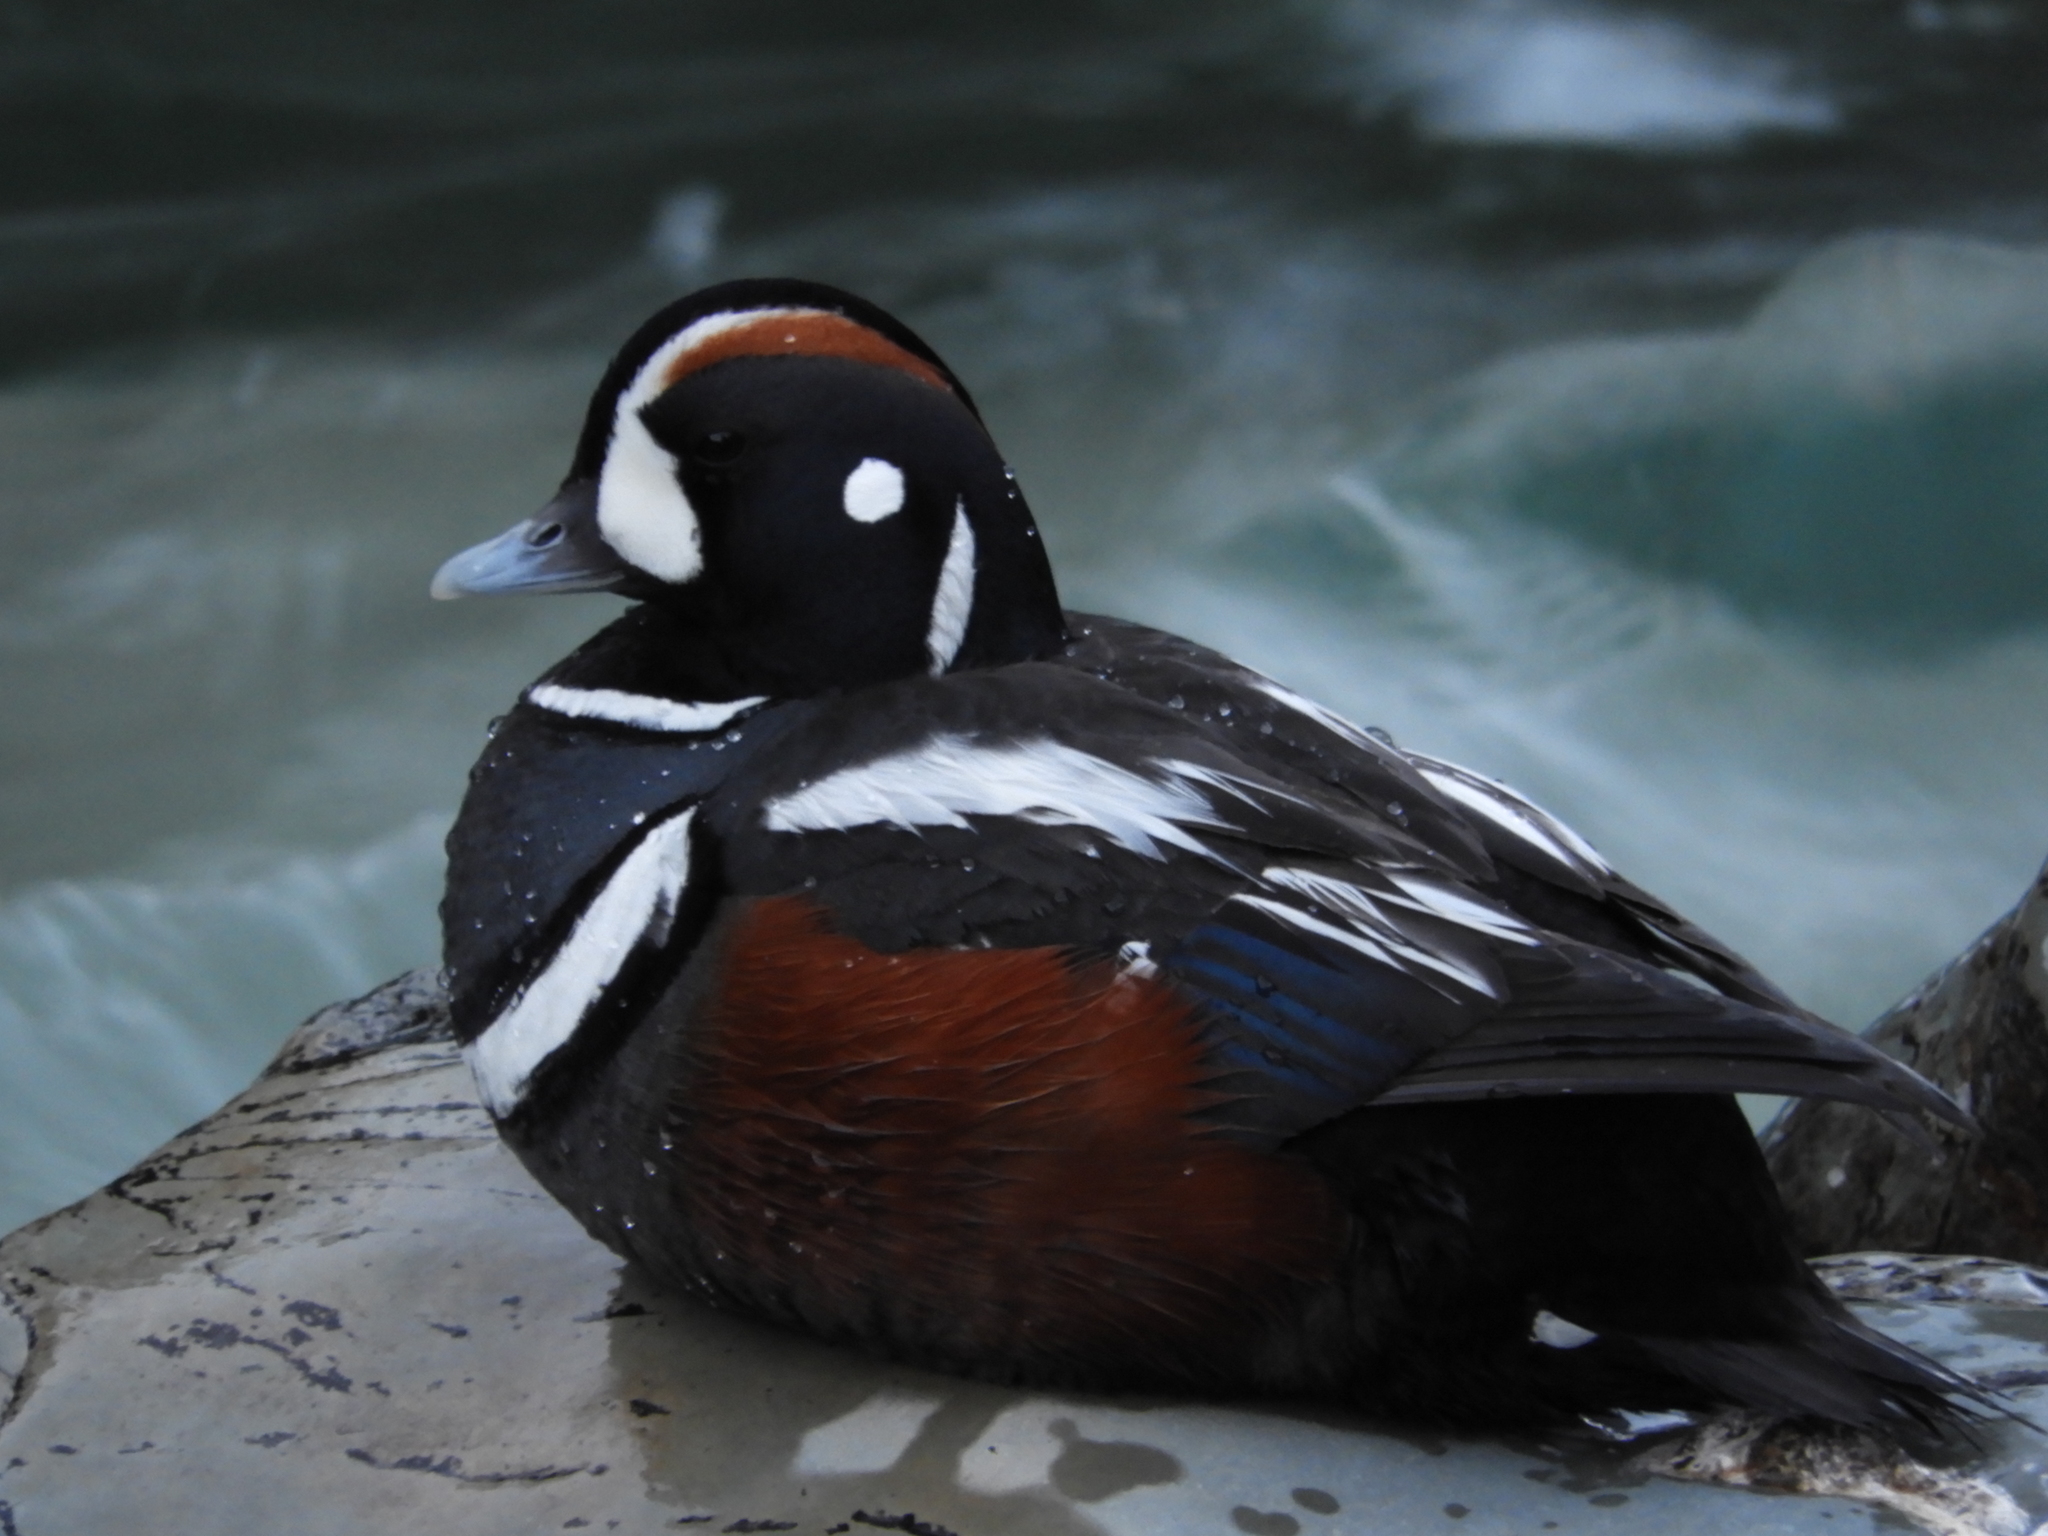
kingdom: Animalia
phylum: Chordata
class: Aves
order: Anseriformes
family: Anatidae
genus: Histrionicus
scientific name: Histrionicus histrionicus
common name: Harlequin duck
